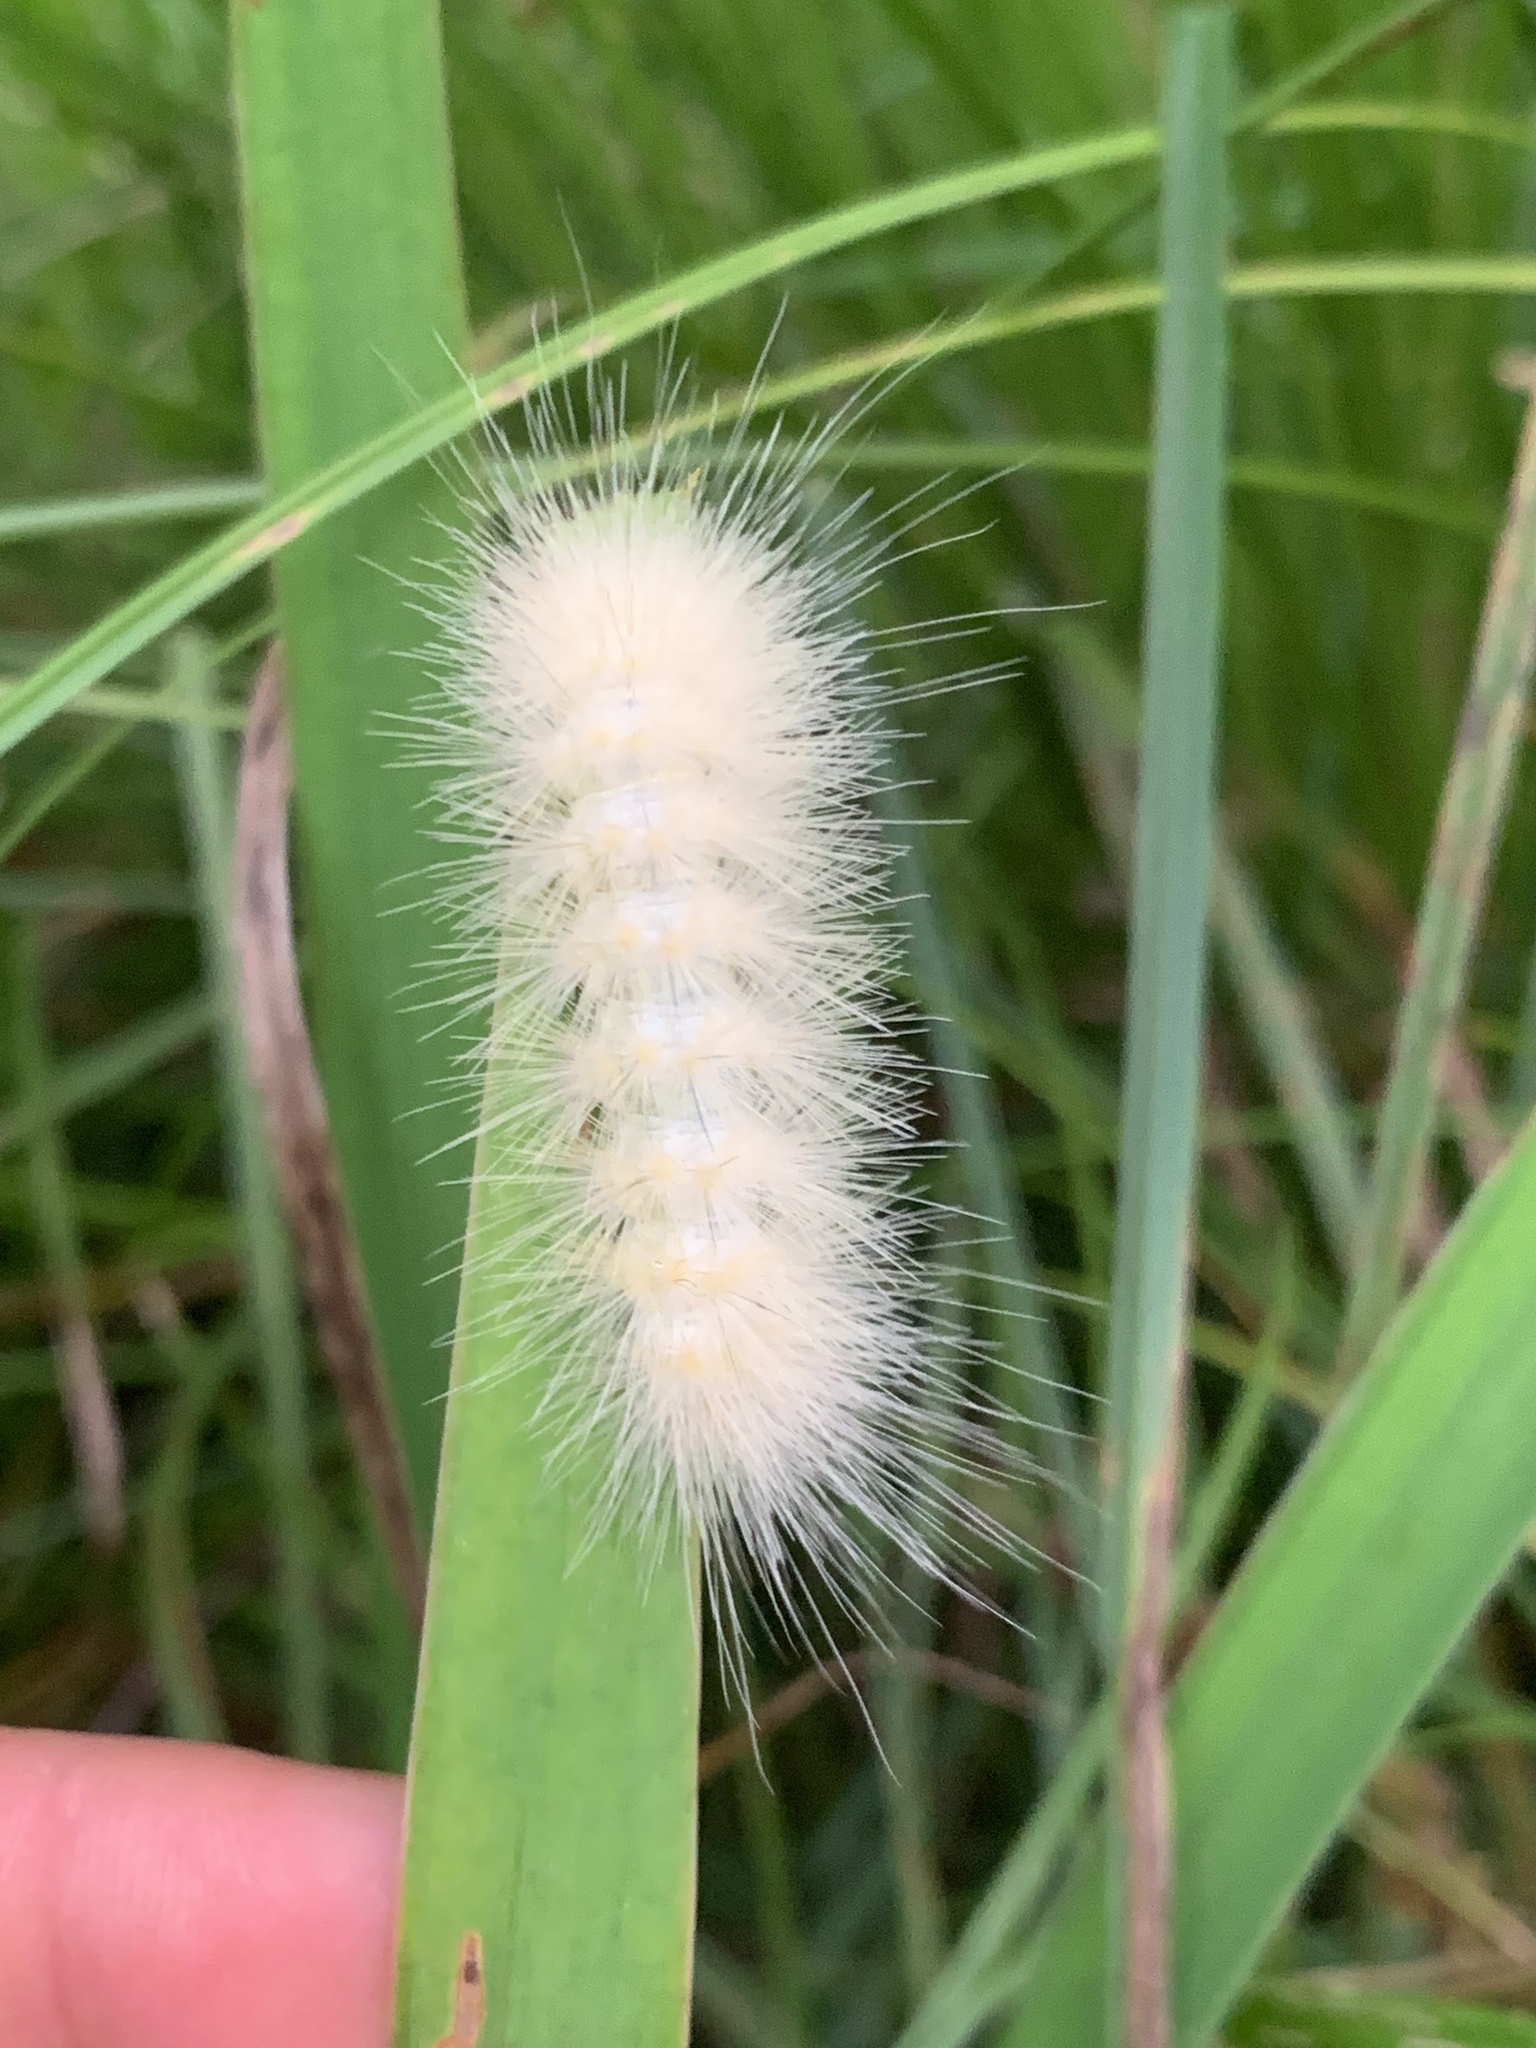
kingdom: Animalia
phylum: Arthropoda
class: Insecta
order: Lepidoptera
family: Erebidae
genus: Spilosoma
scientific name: Spilosoma virginica
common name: Virginia tiger moth
